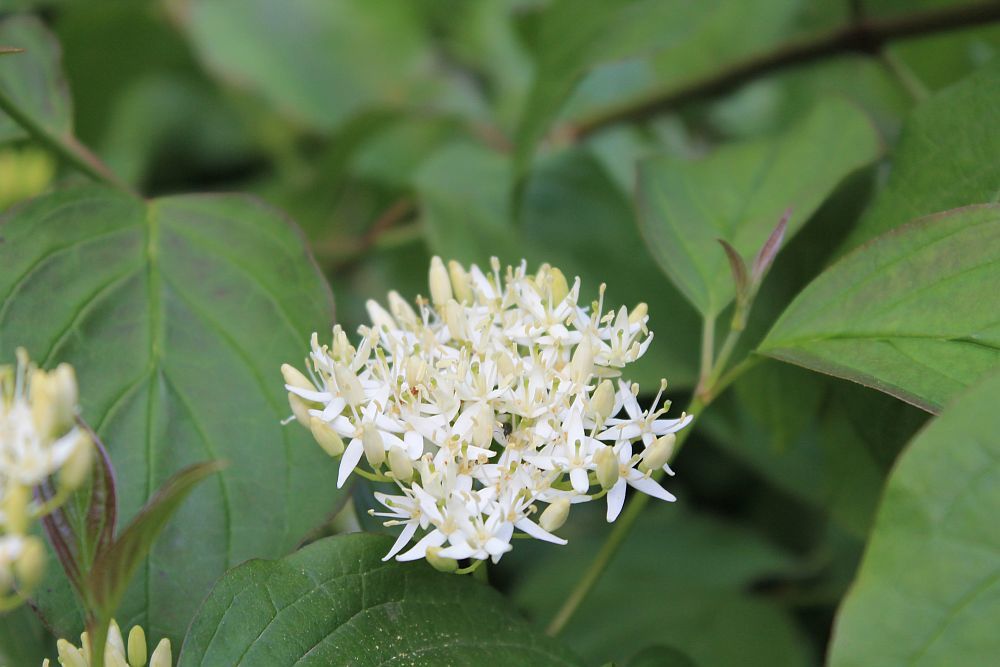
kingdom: Plantae
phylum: Tracheophyta
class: Magnoliopsida
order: Cornales
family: Cornaceae
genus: Cornus
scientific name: Cornus sanguinea
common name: Dogwood
